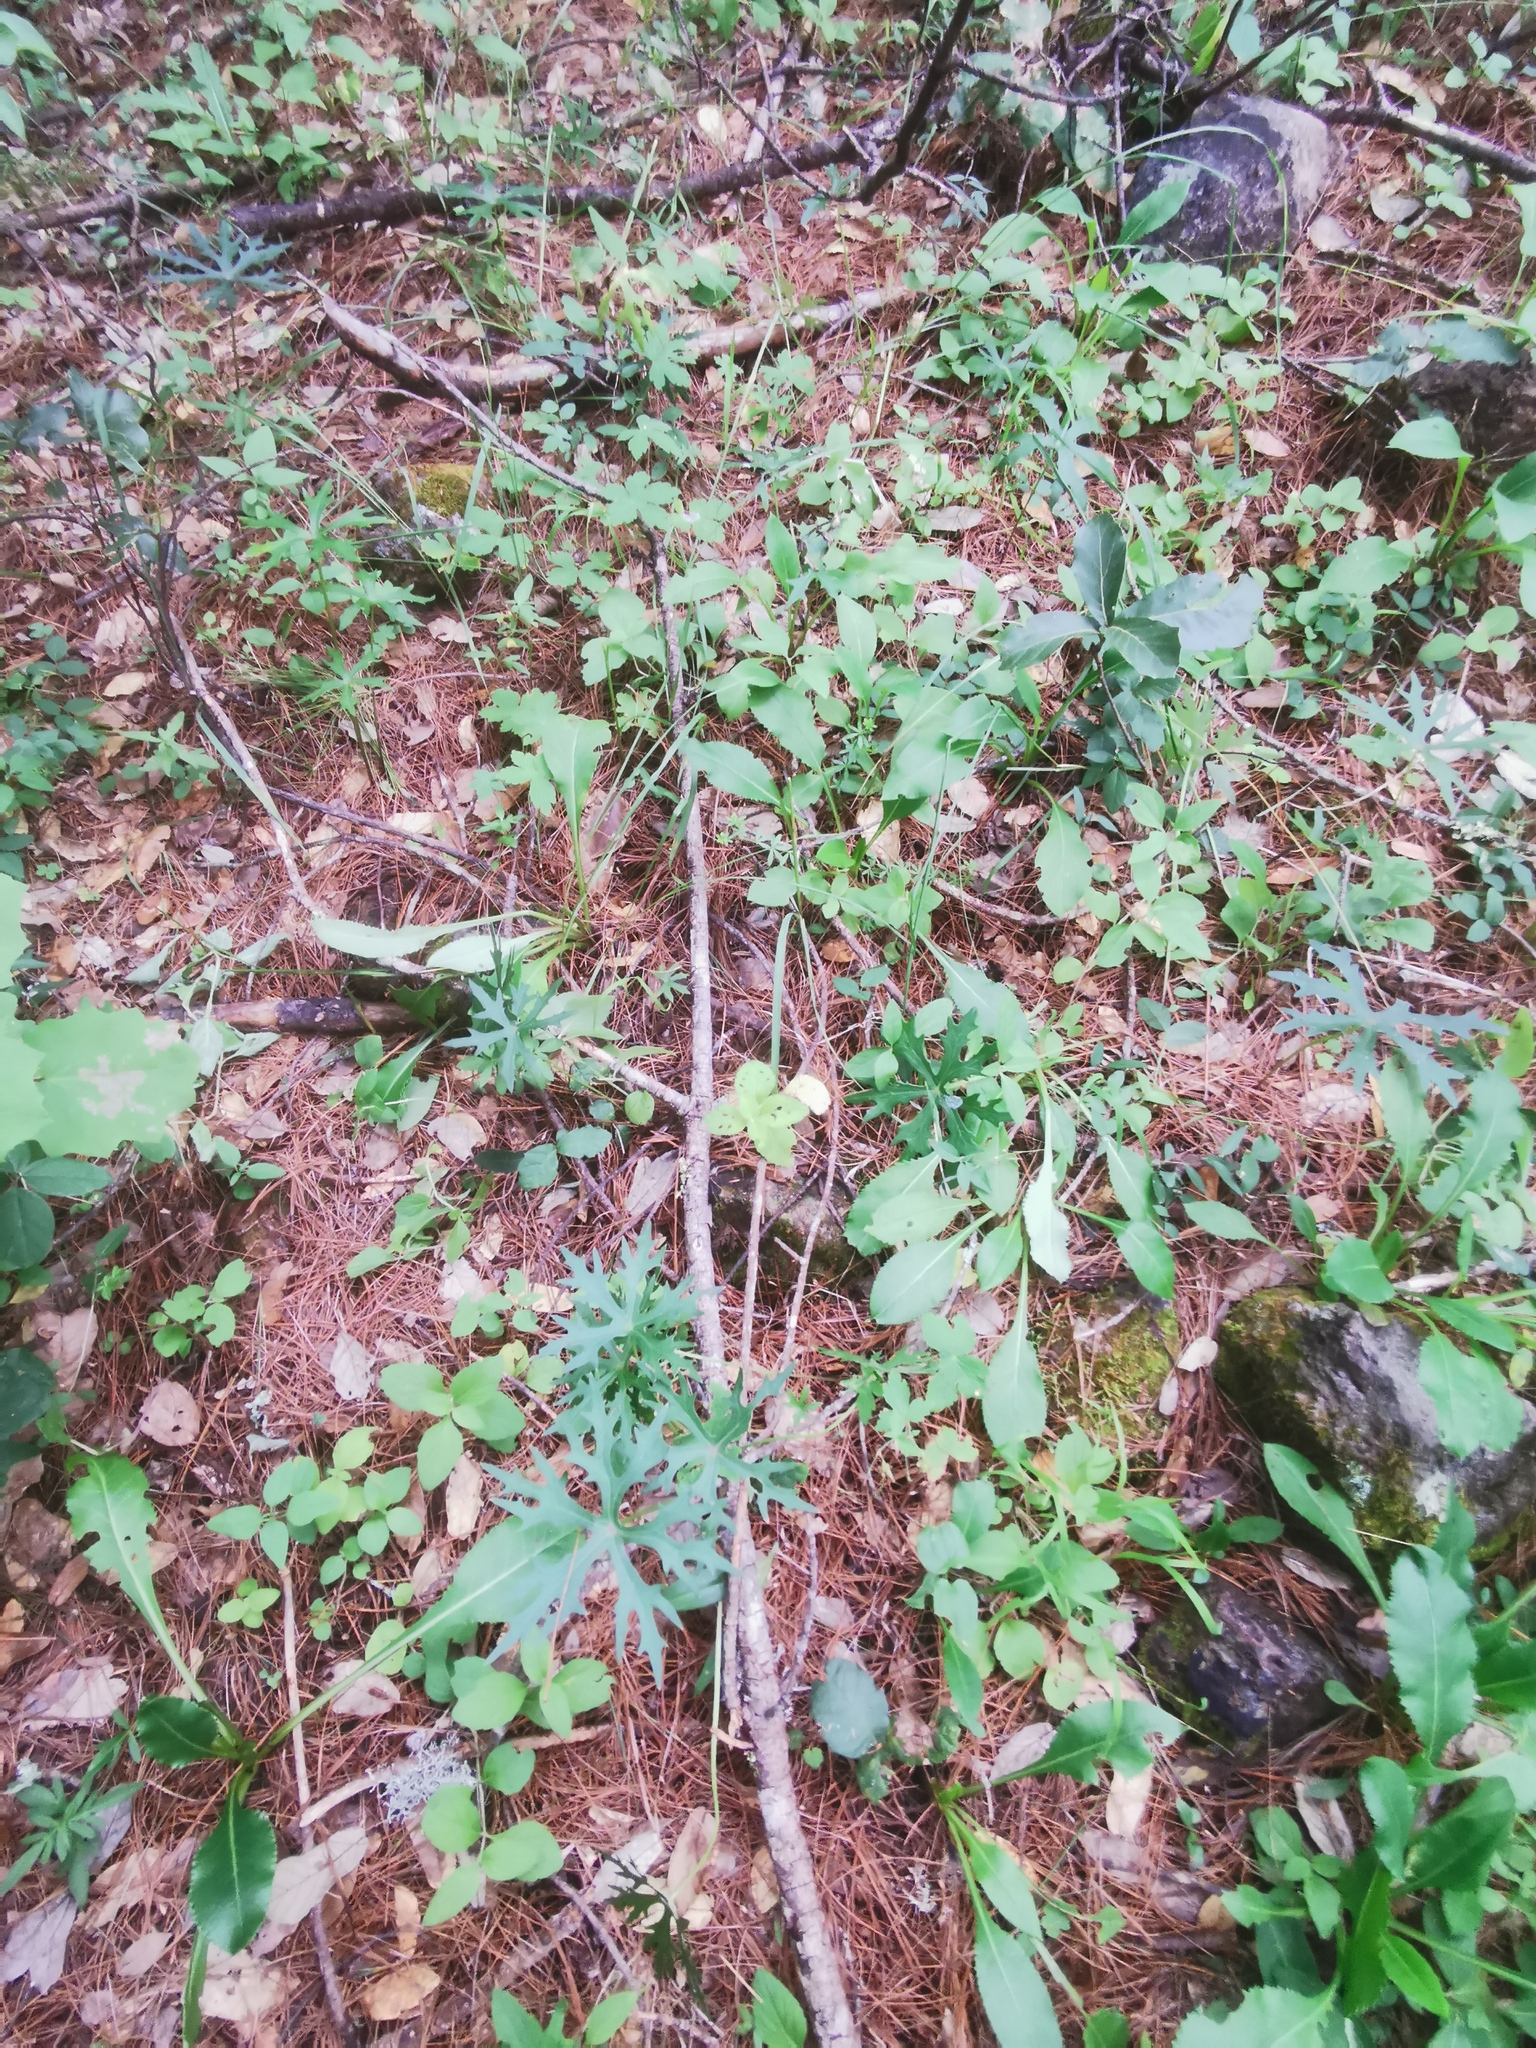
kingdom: Plantae
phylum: Tracheophyta
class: Magnoliopsida
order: Asterales
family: Asteraceae
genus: Pippenalia
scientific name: Pippenalia delphinifolia
